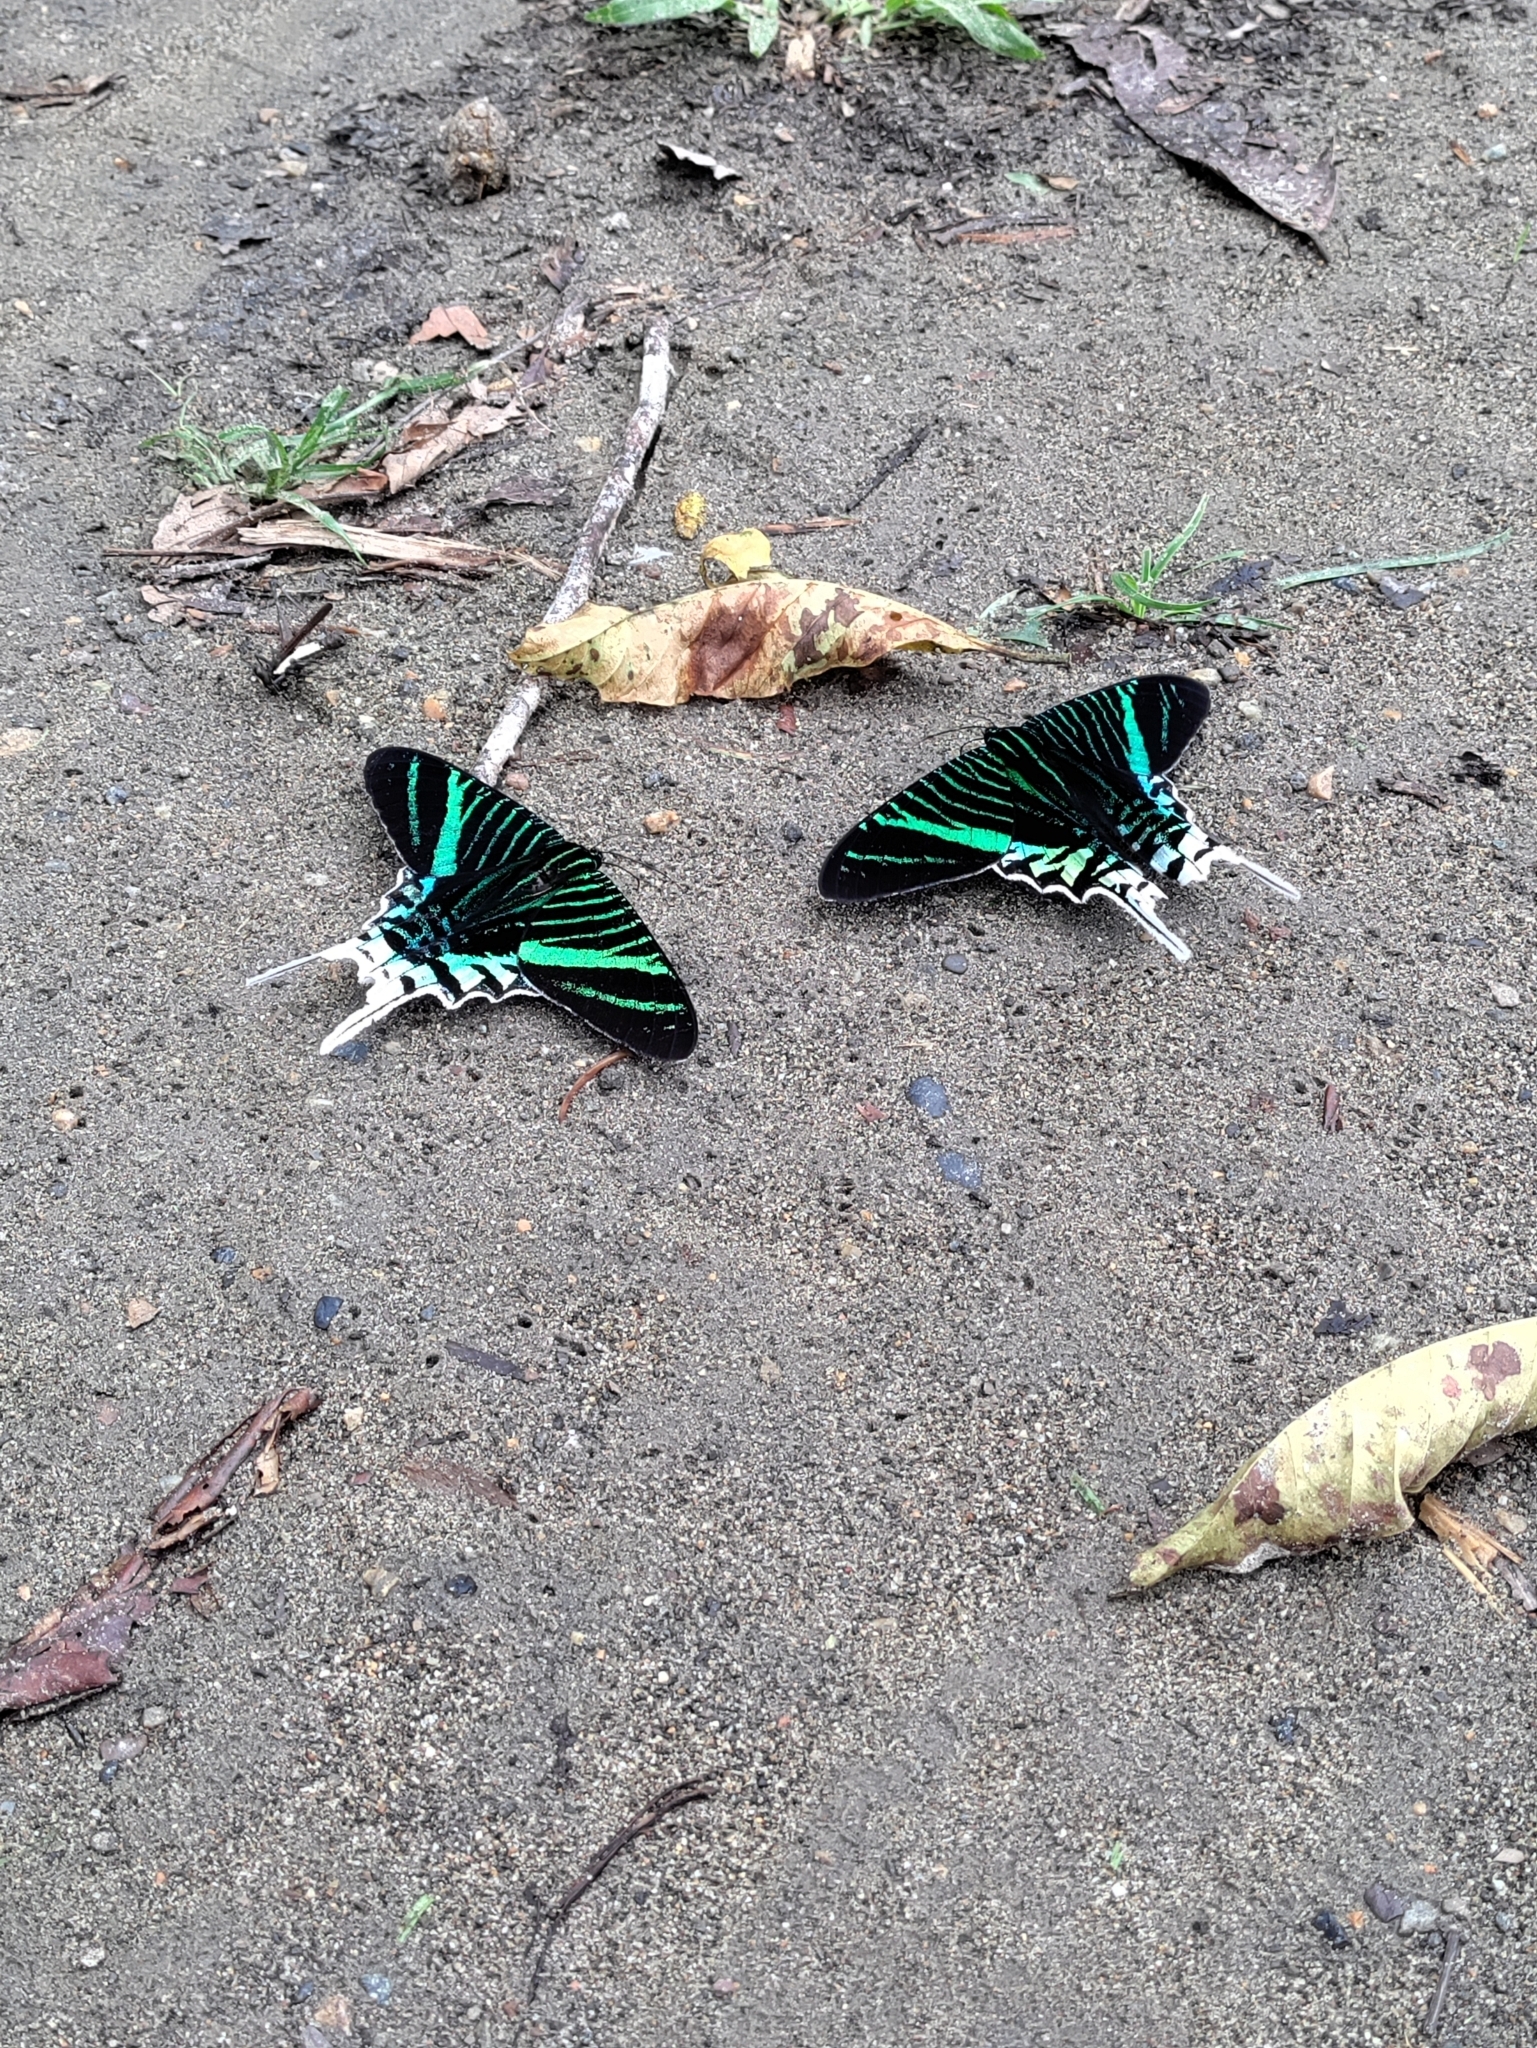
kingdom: Animalia
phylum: Arthropoda
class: Insecta
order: Lepidoptera
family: Uraniidae
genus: Urania
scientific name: Urania leilus
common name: Peacock moth
